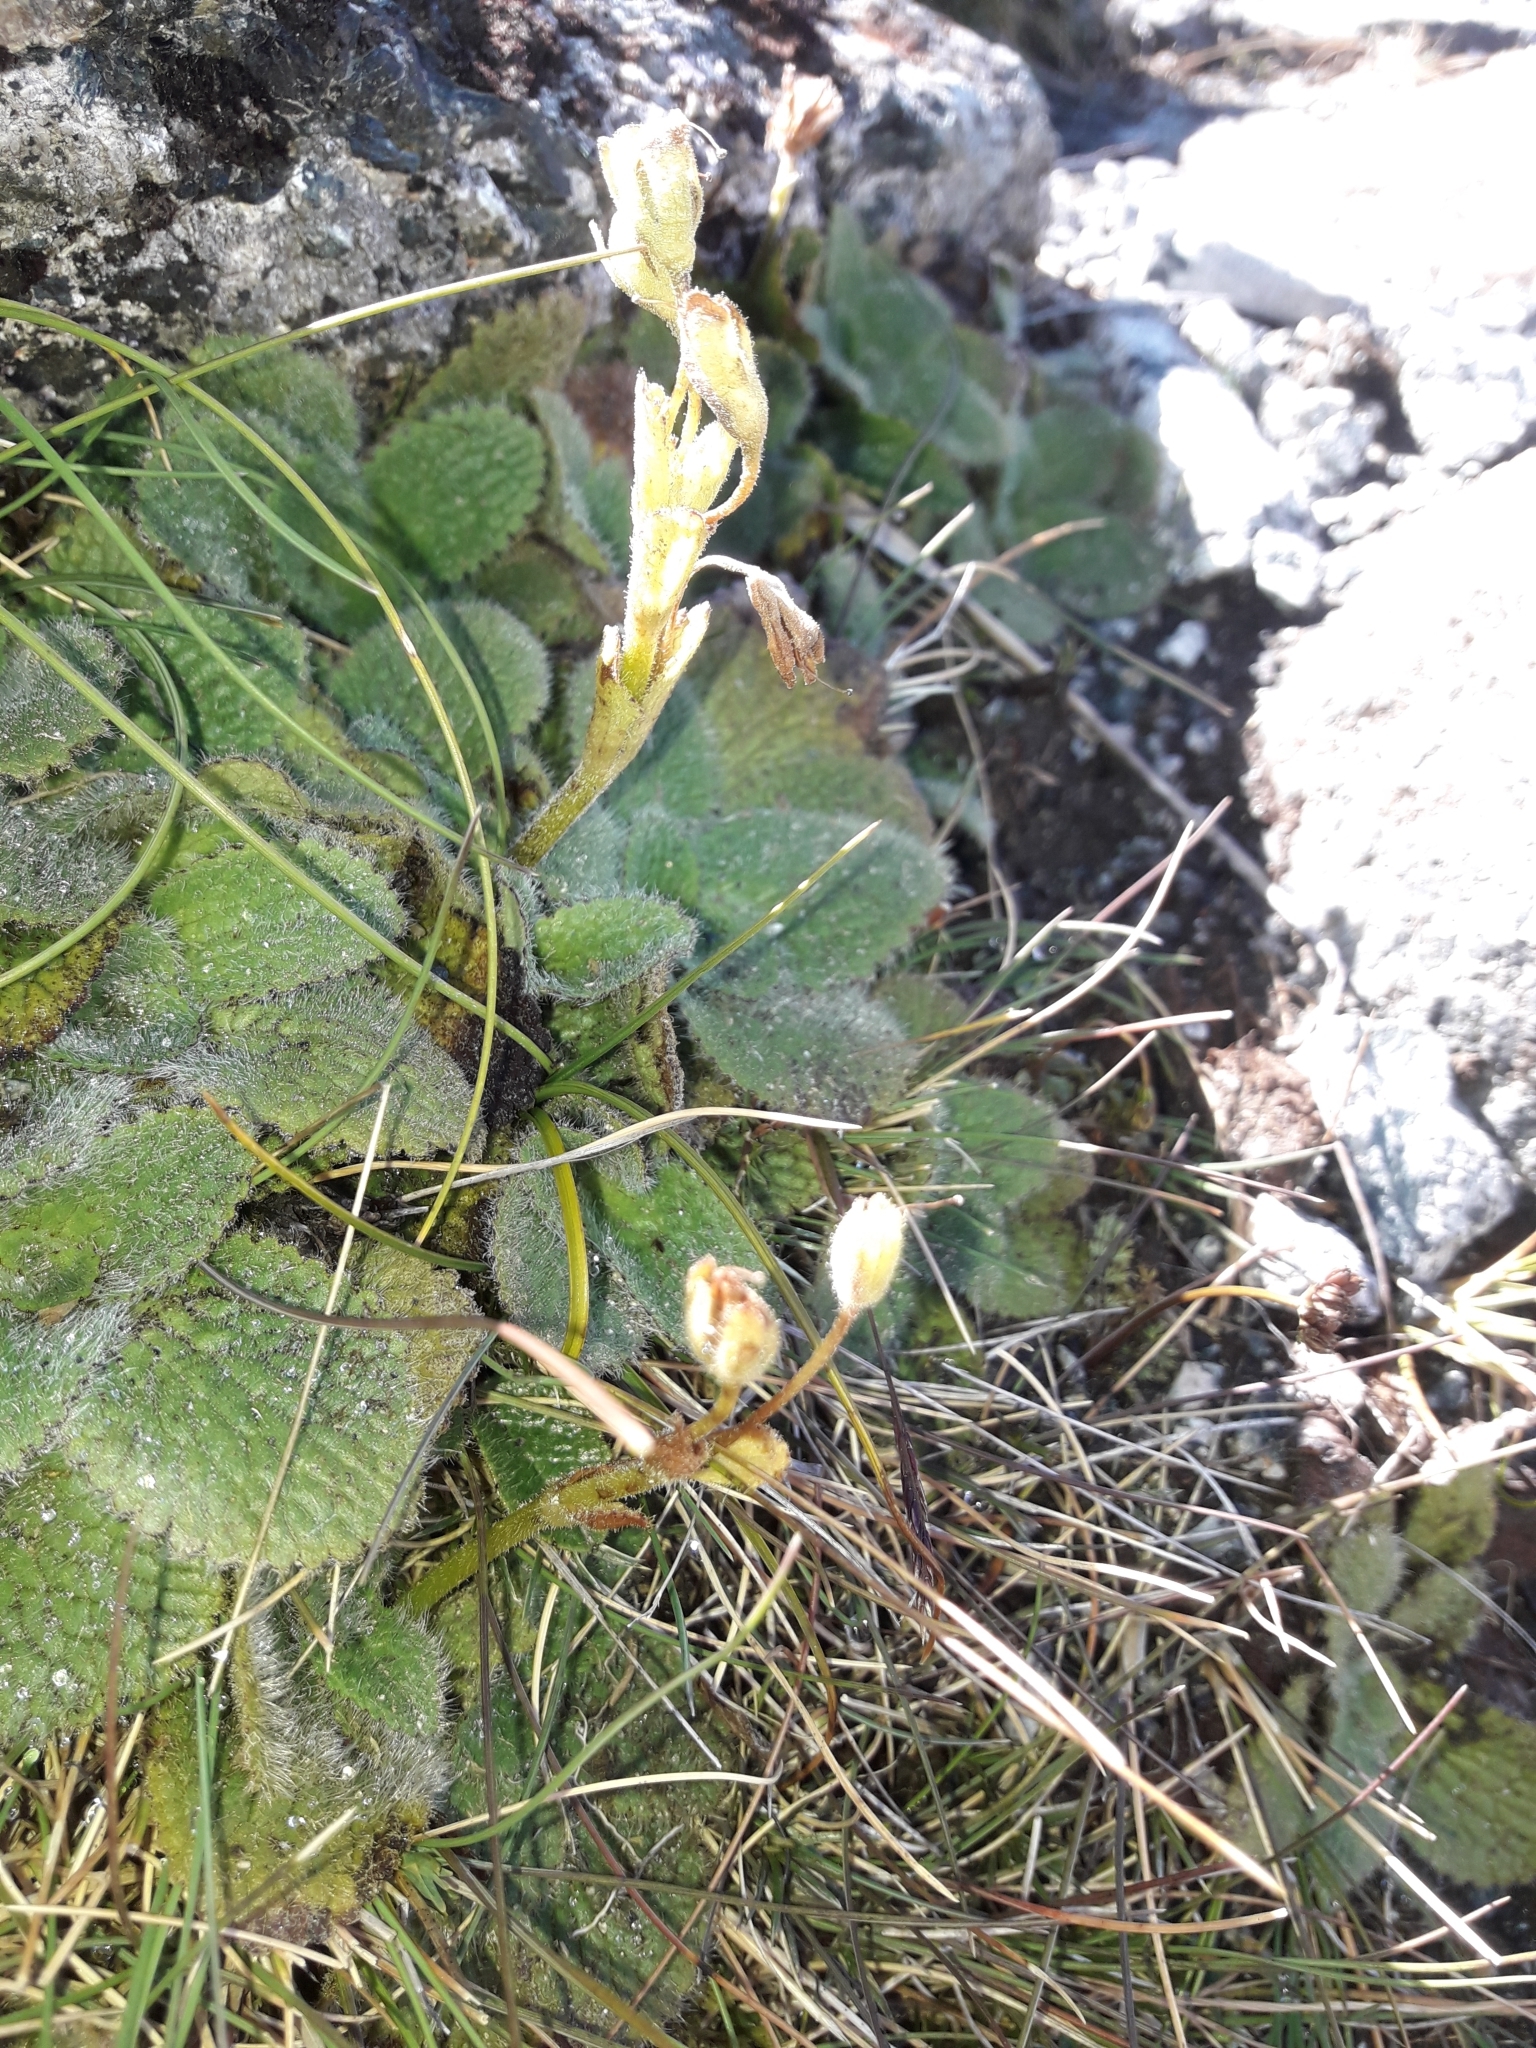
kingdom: Plantae
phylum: Tracheophyta
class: Magnoliopsida
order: Lamiales
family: Plantaginaceae
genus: Ourisia
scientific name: Ourisia sessilifolia
